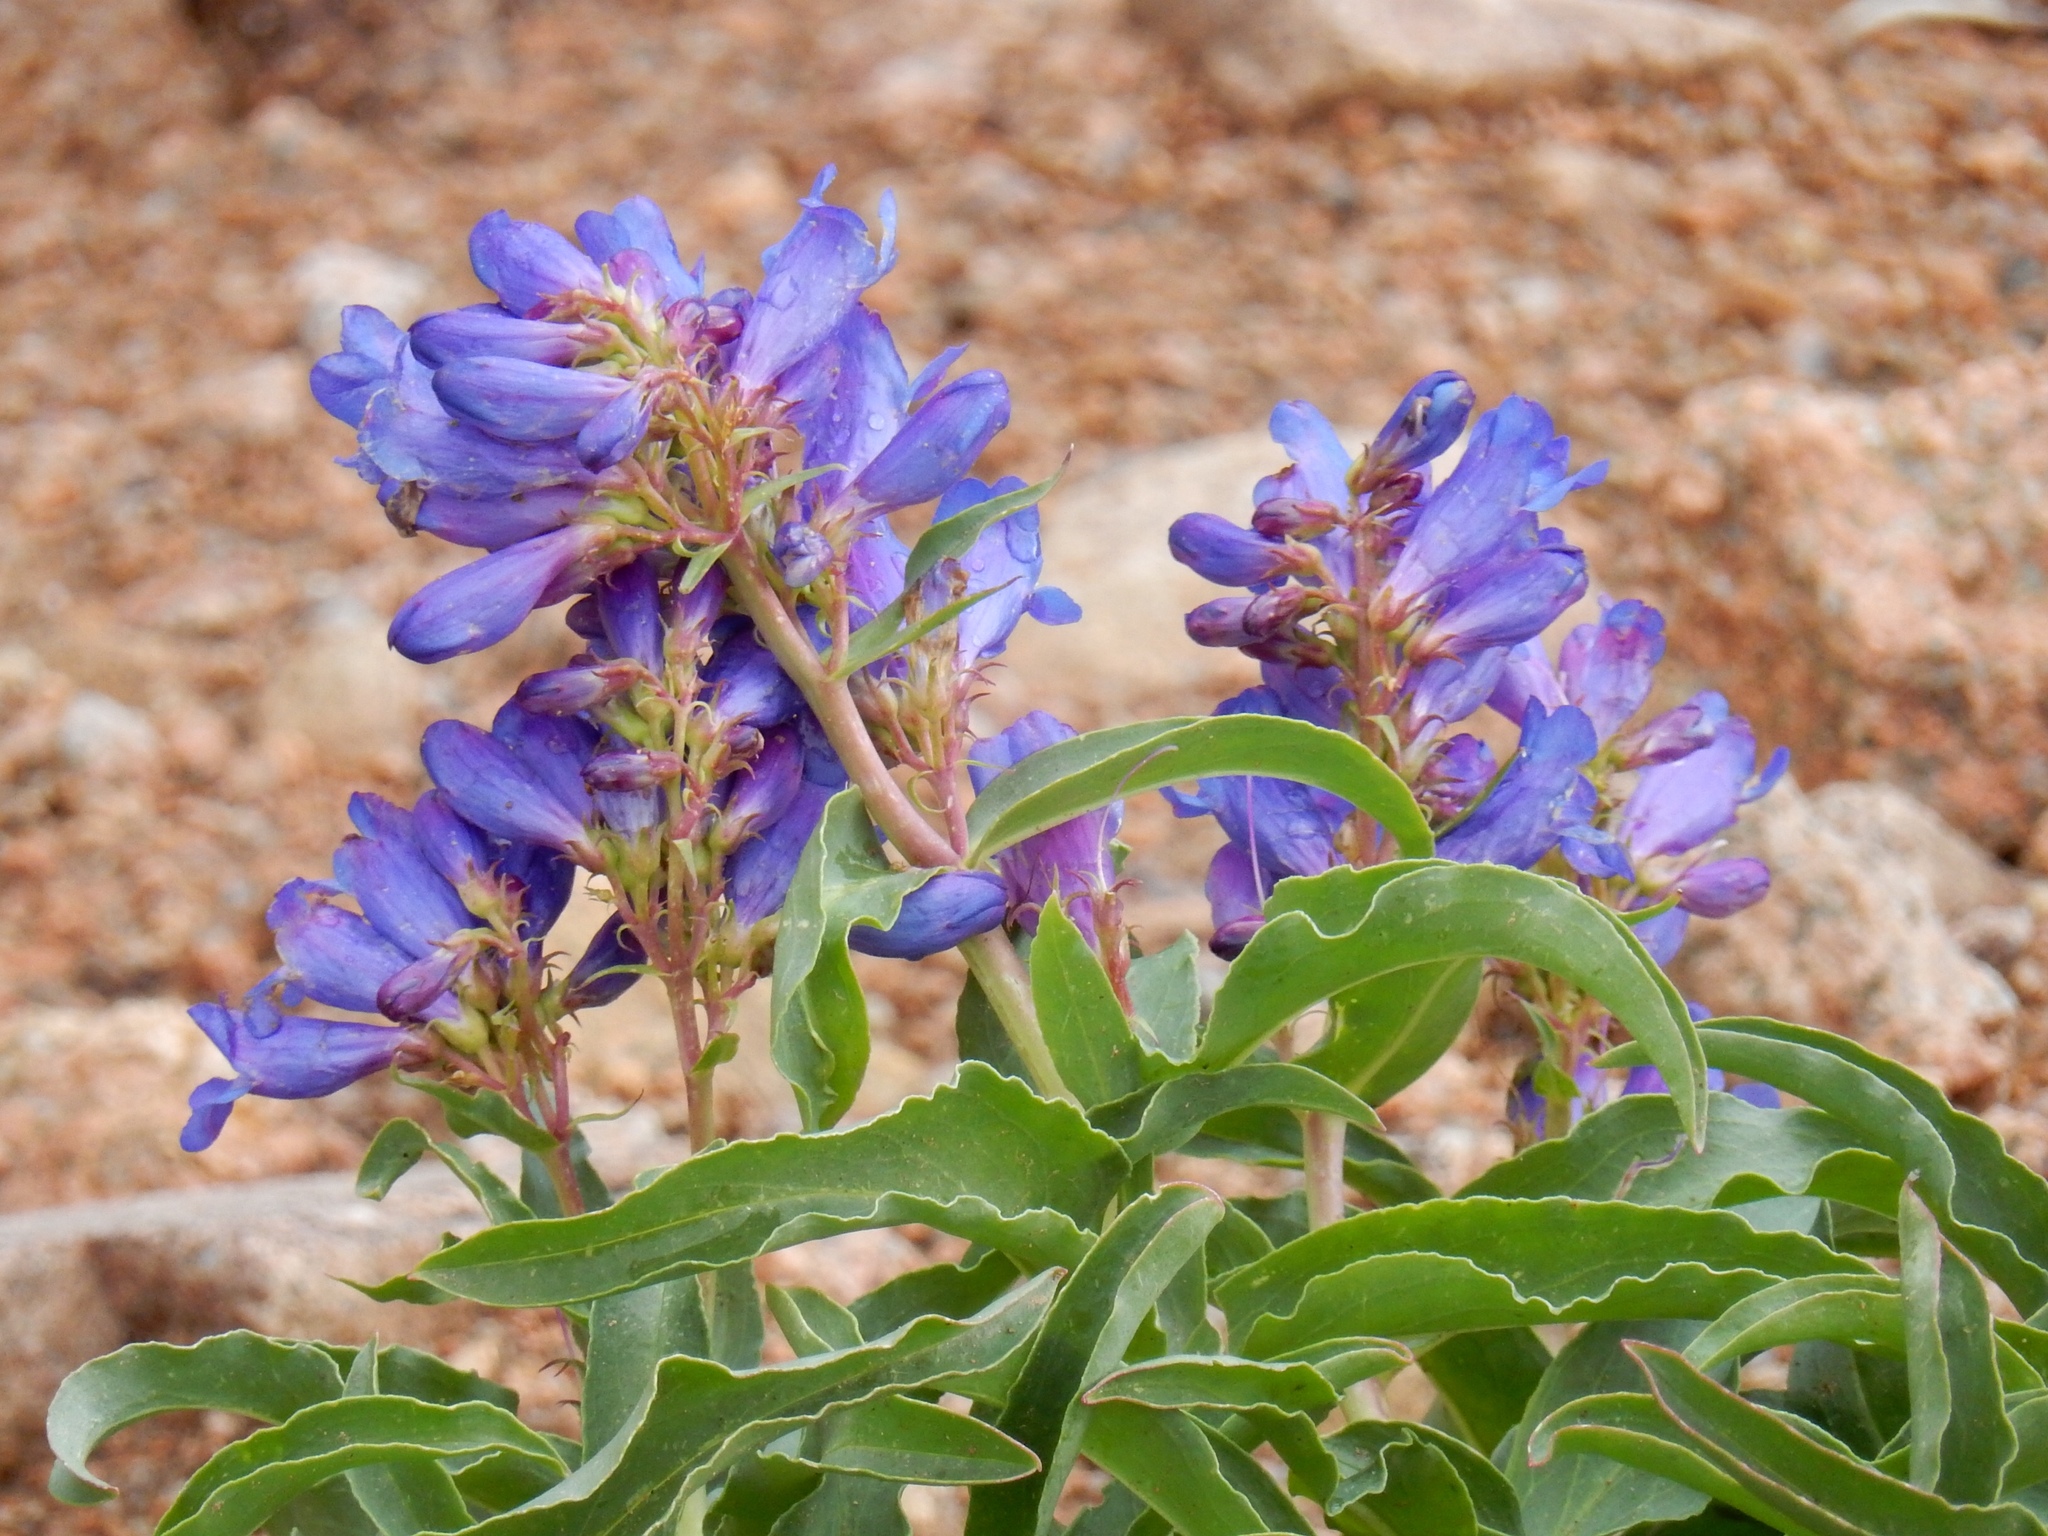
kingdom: Plantae
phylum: Tracheophyta
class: Magnoliopsida
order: Lamiales
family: Plantaginaceae
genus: Penstemon
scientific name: Penstemon glaber
